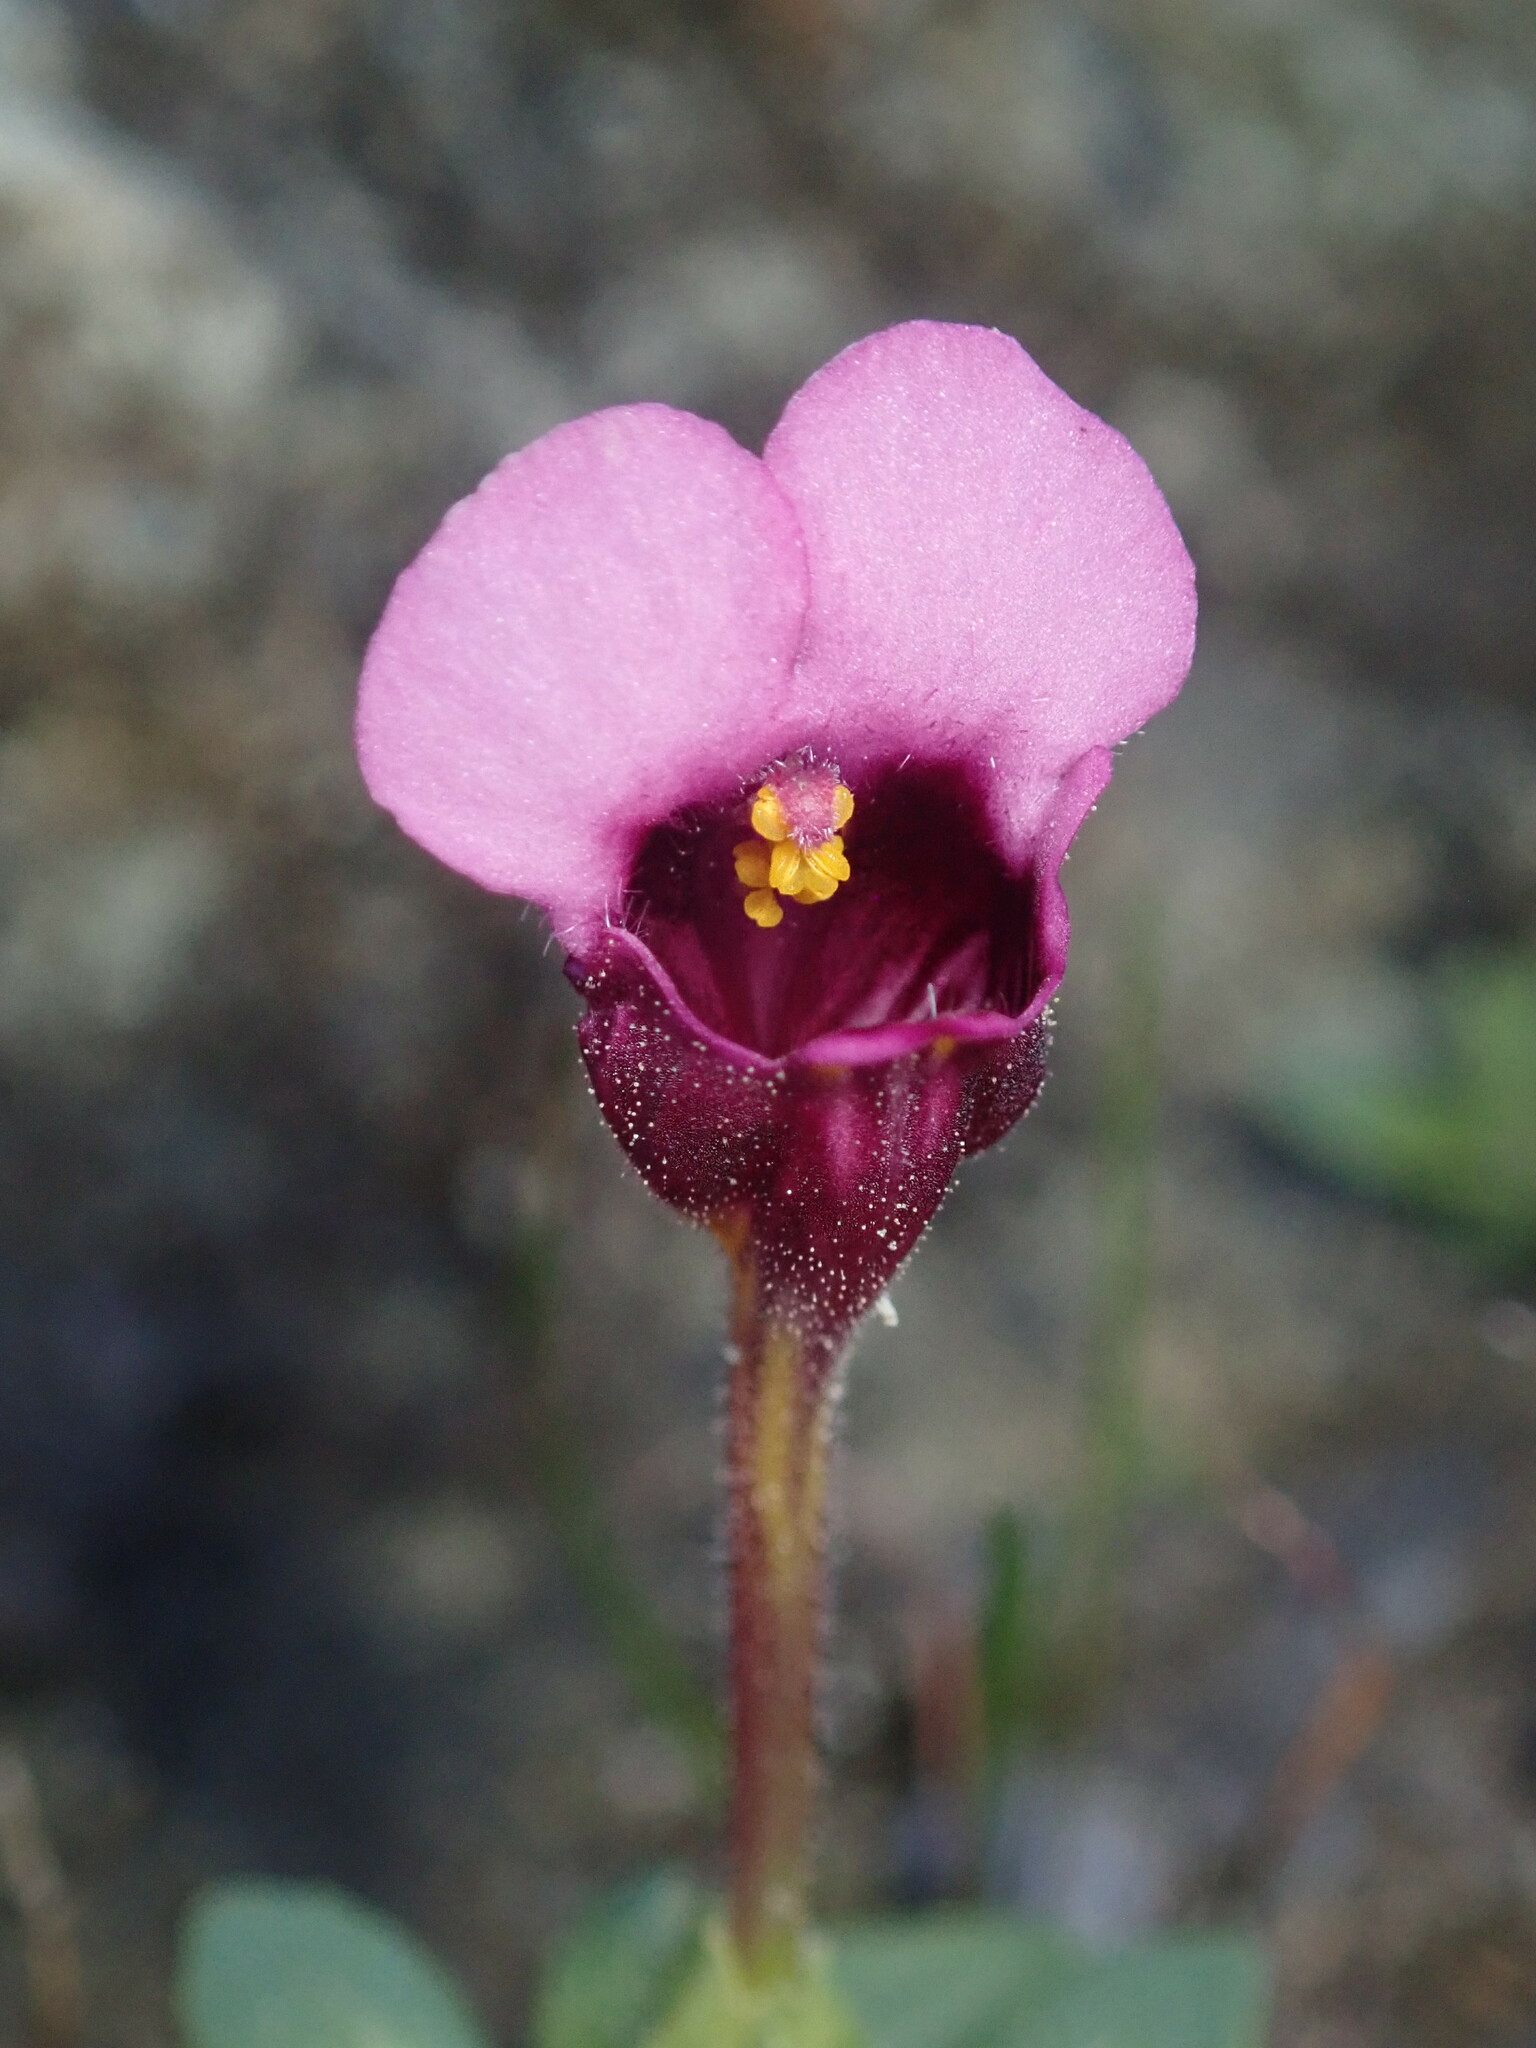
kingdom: Plantae
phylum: Tracheophyta
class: Magnoliopsida
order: Lamiales
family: Phrymaceae
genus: Diplacus
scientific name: Diplacus douglasii
